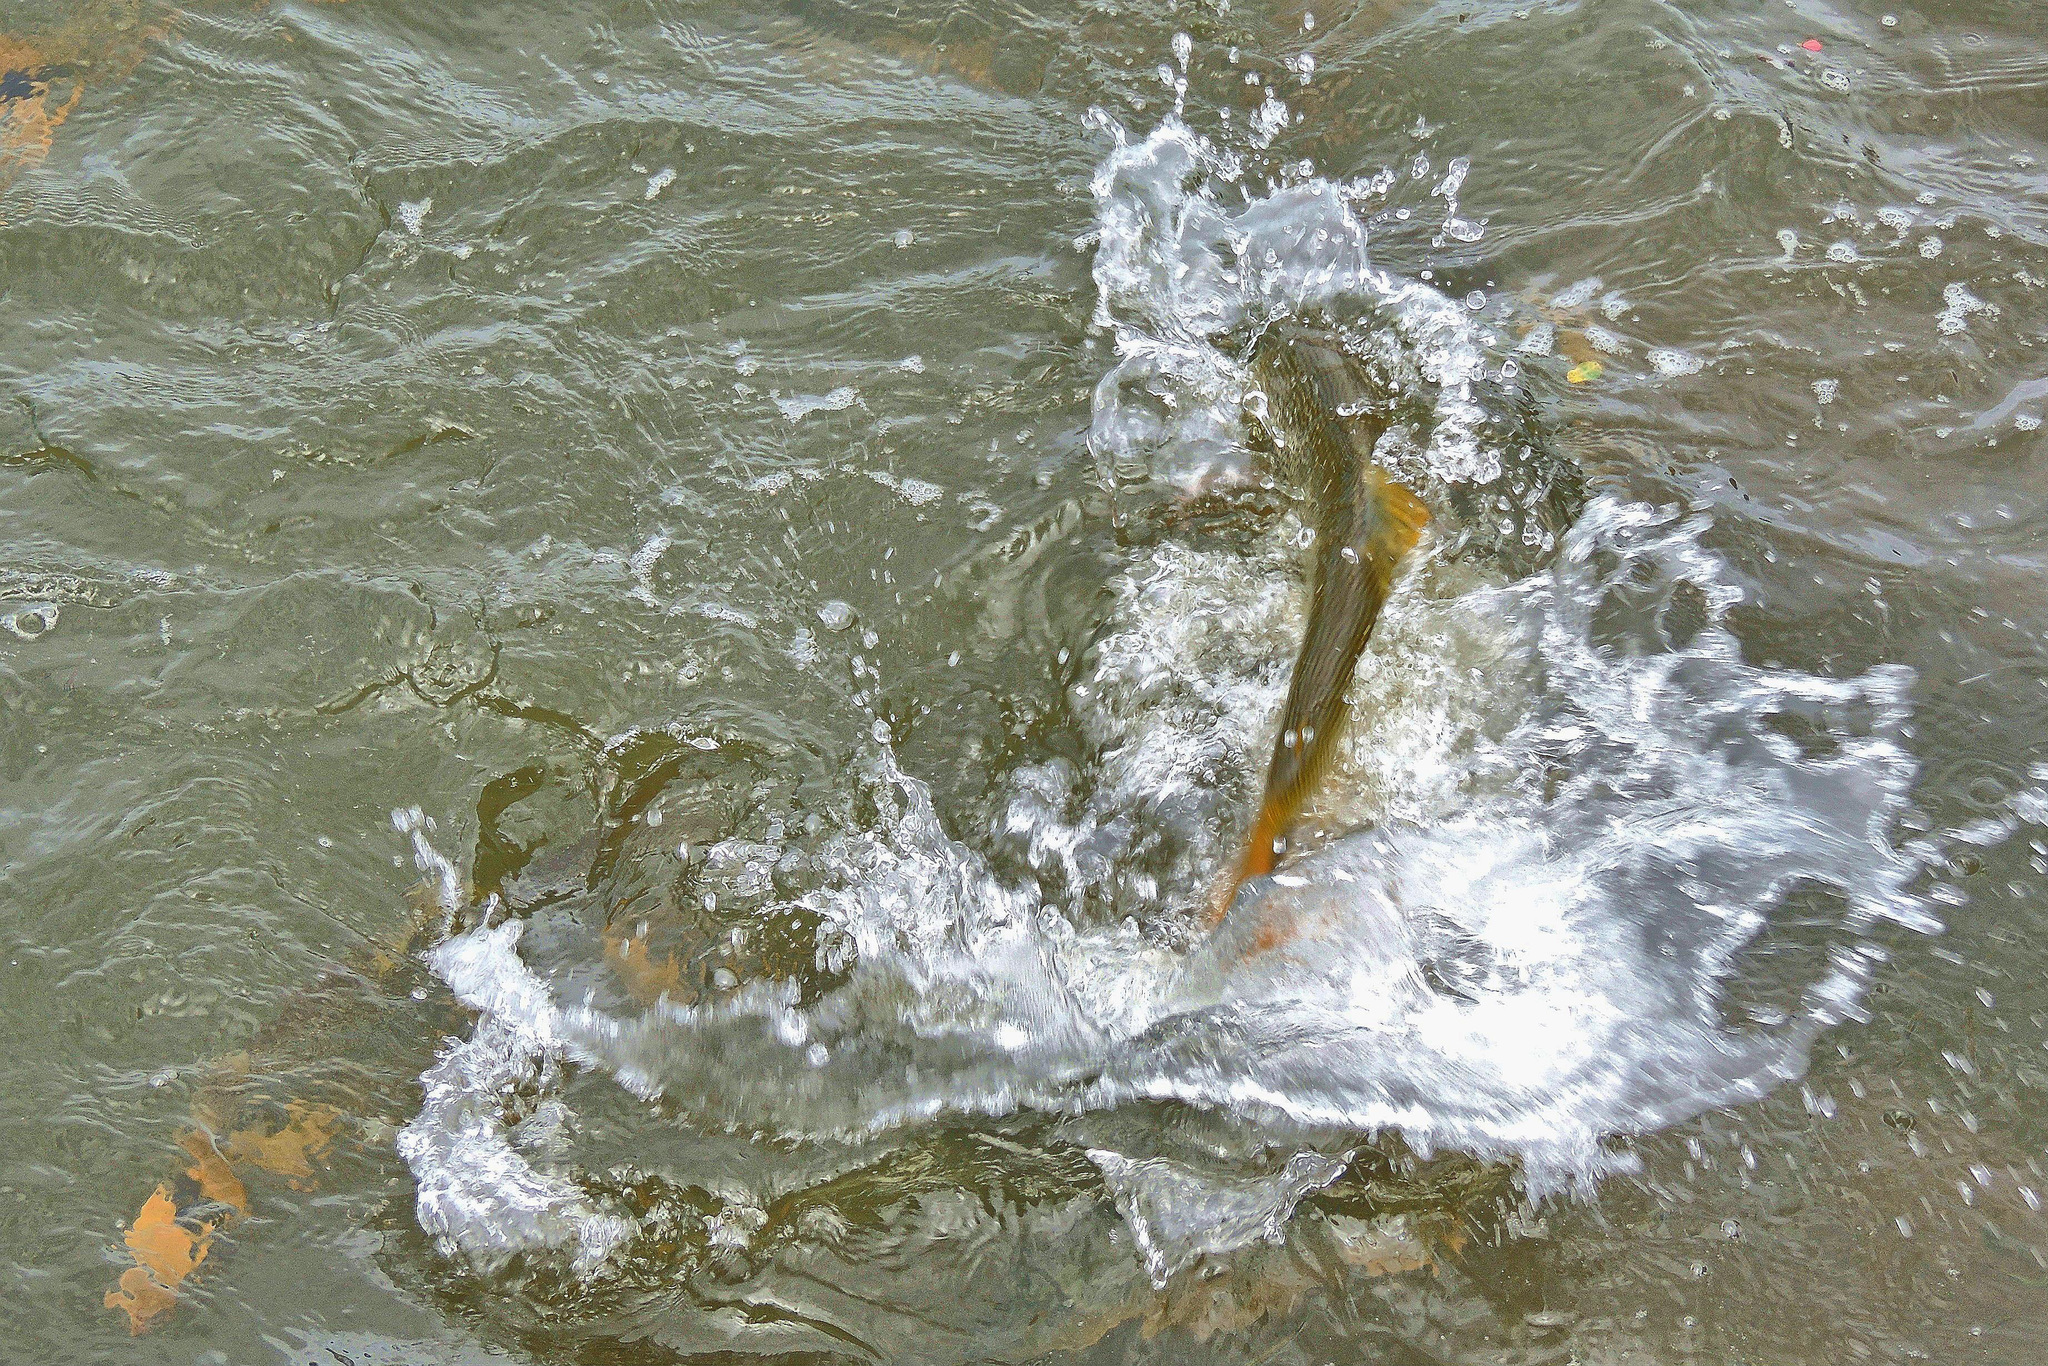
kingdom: Animalia
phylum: Chordata
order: Characiformes
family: Bryconidae
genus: Salminus
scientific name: Salminus brasiliensis
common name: Dorado
